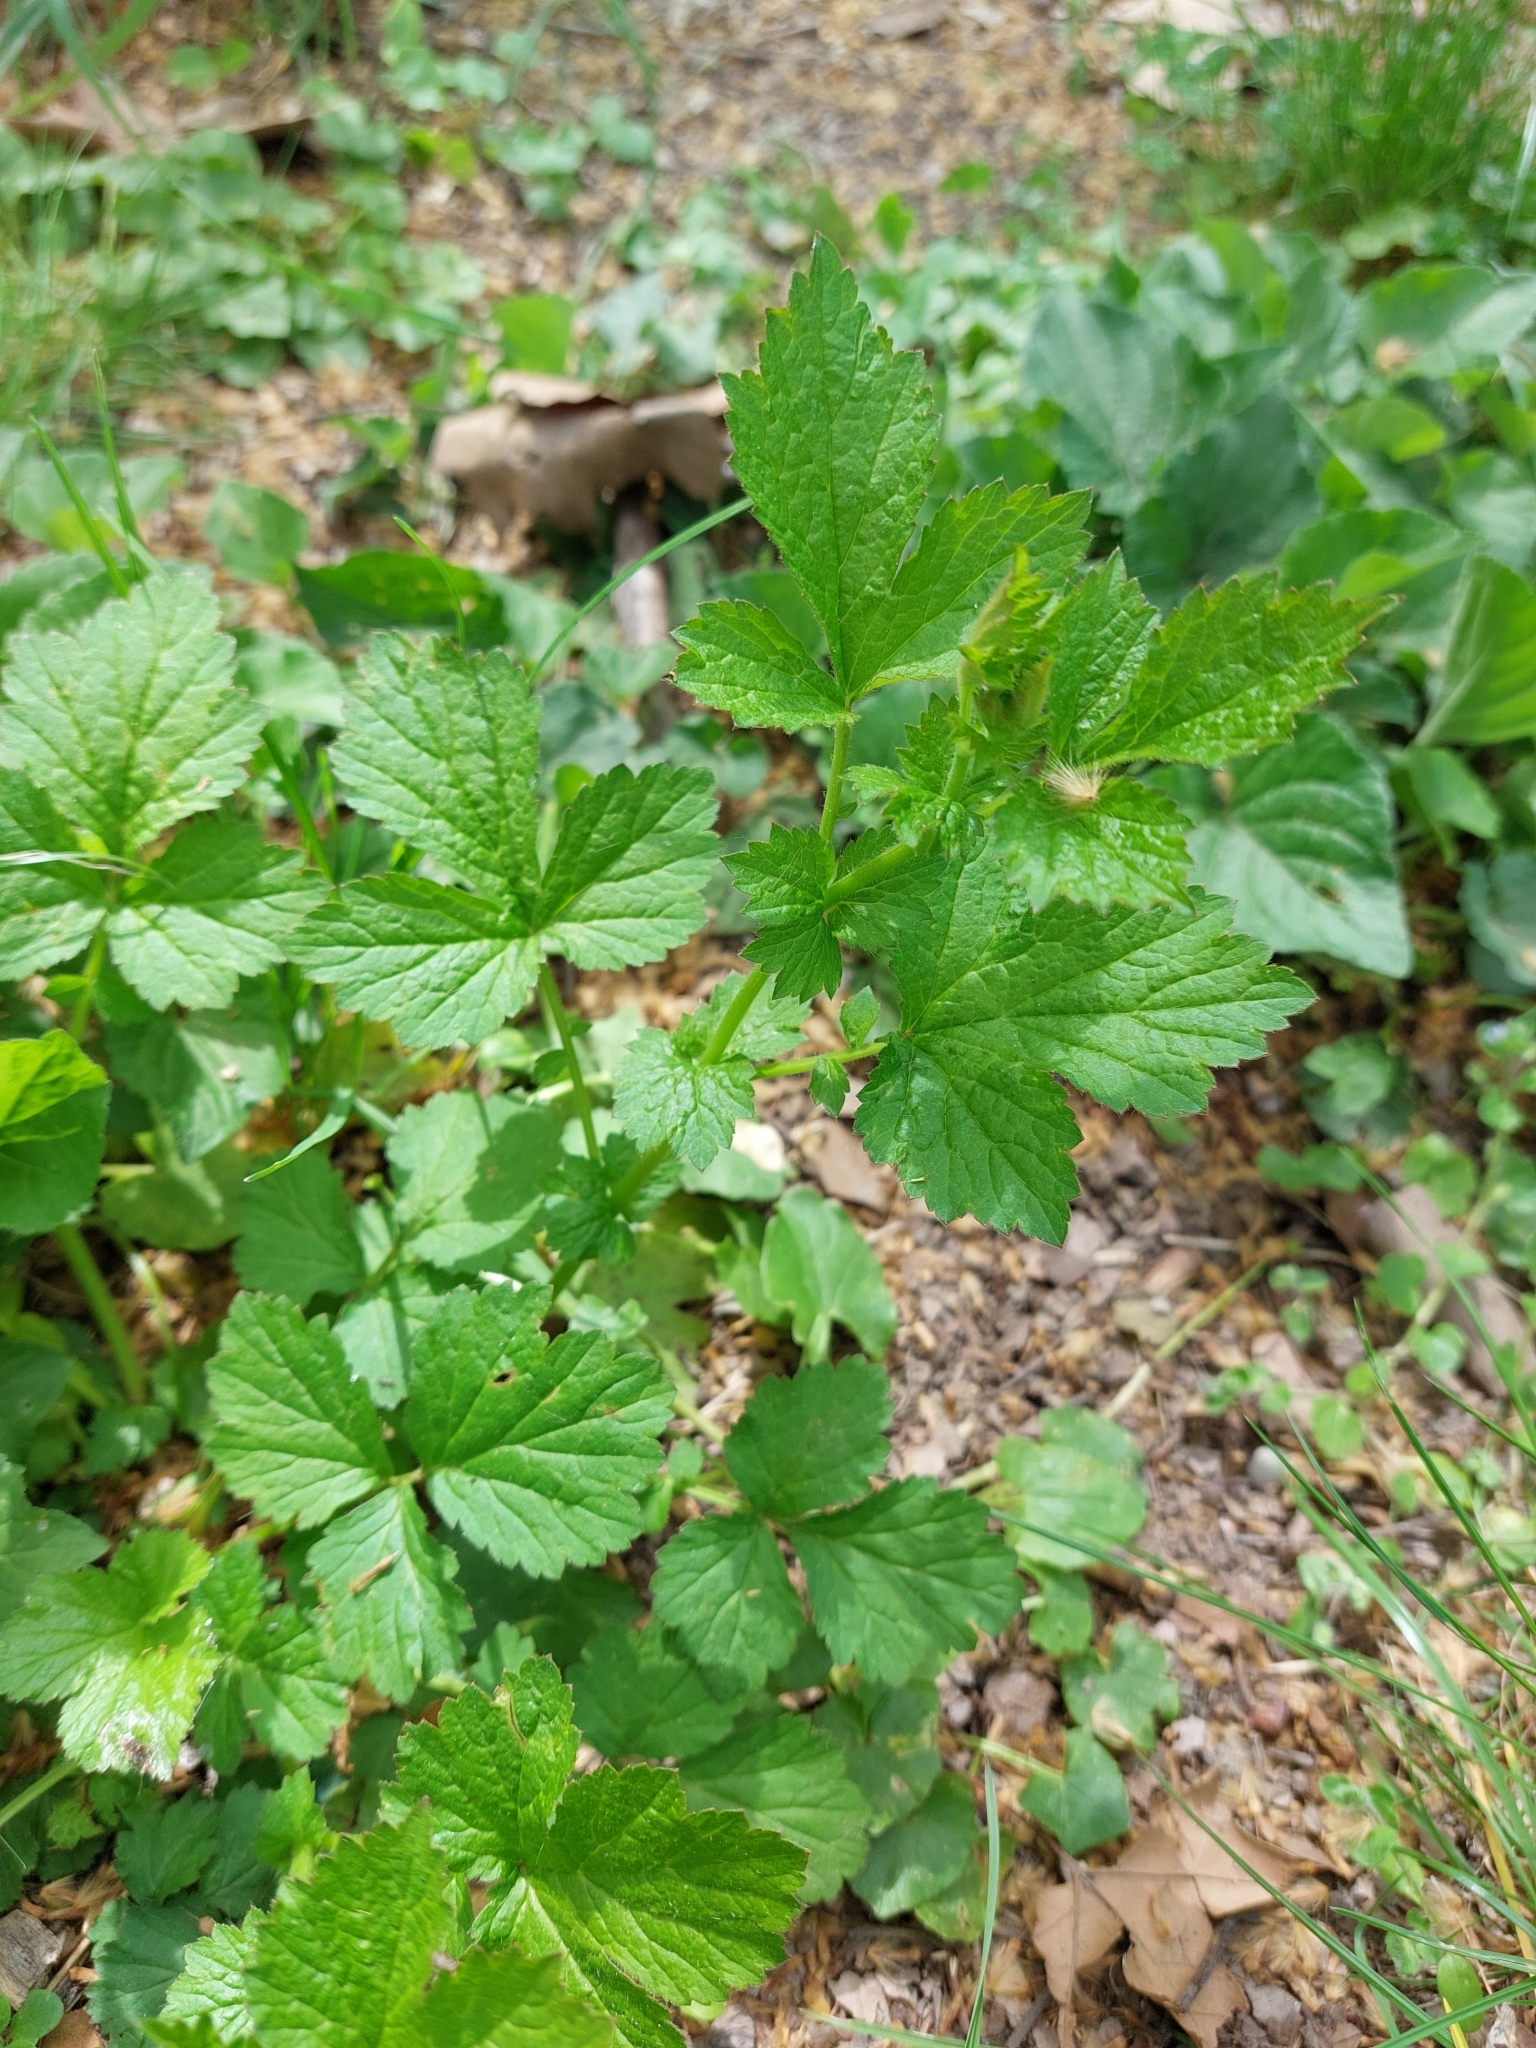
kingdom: Plantae
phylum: Tracheophyta
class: Magnoliopsida
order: Rosales
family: Rosaceae
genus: Geum
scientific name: Geum urbanum
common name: Wood avens
